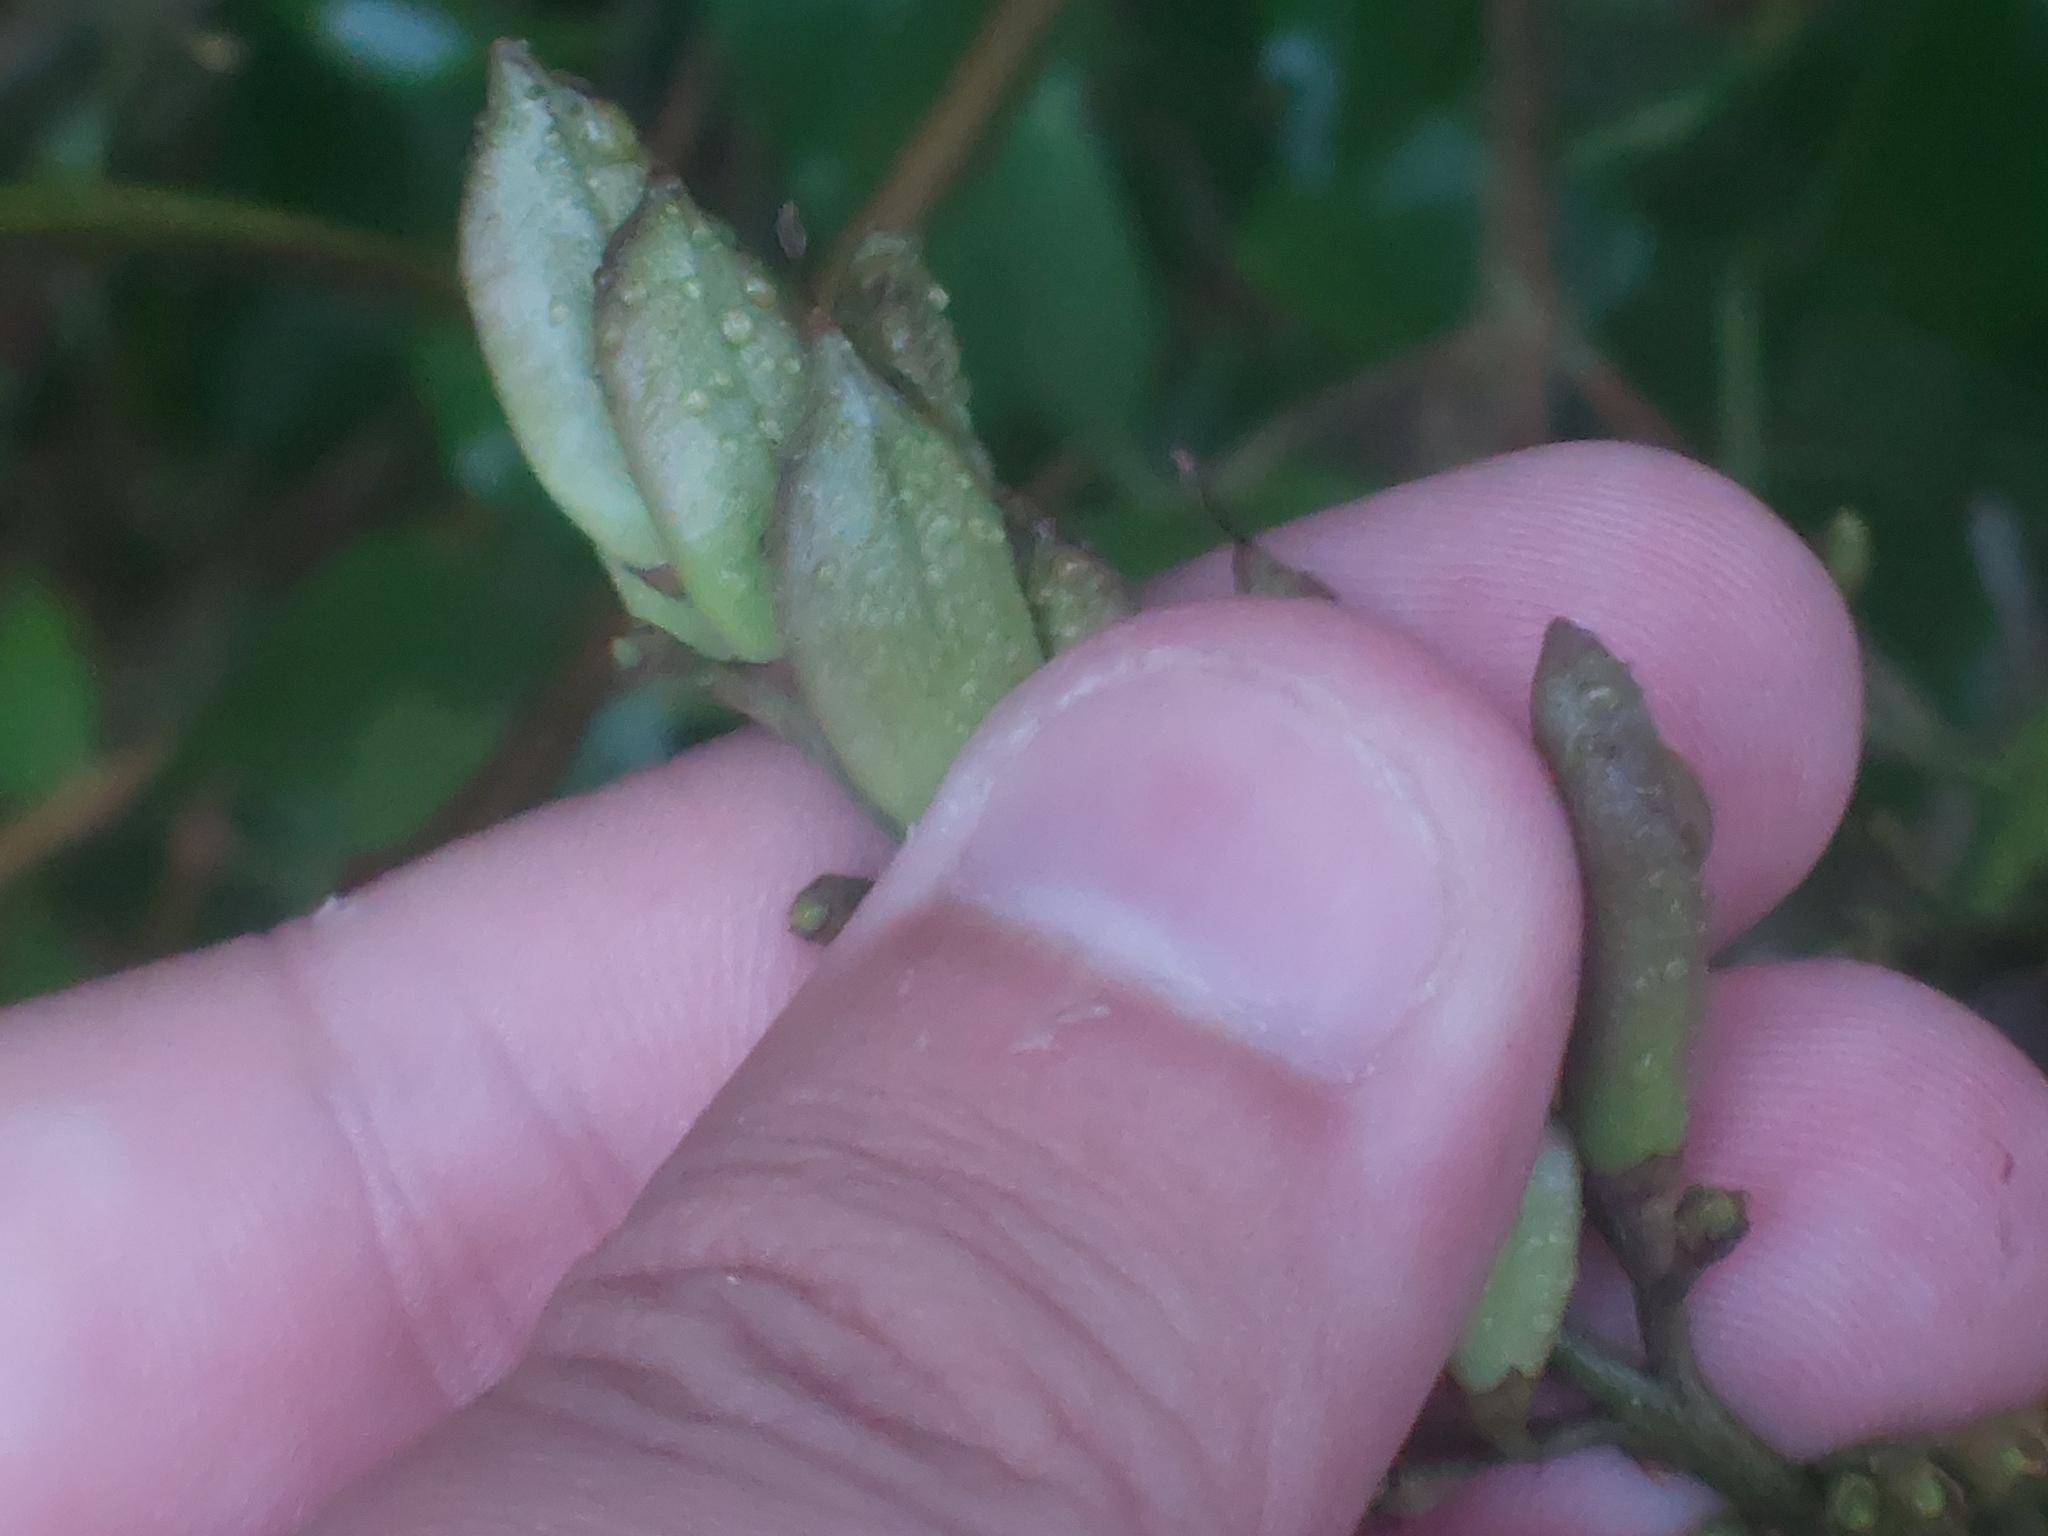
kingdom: Plantae
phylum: Tracheophyta
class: Magnoliopsida
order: Lamiales
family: Oleaceae
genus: Syringa
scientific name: Syringa vulgaris
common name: Common lilac
